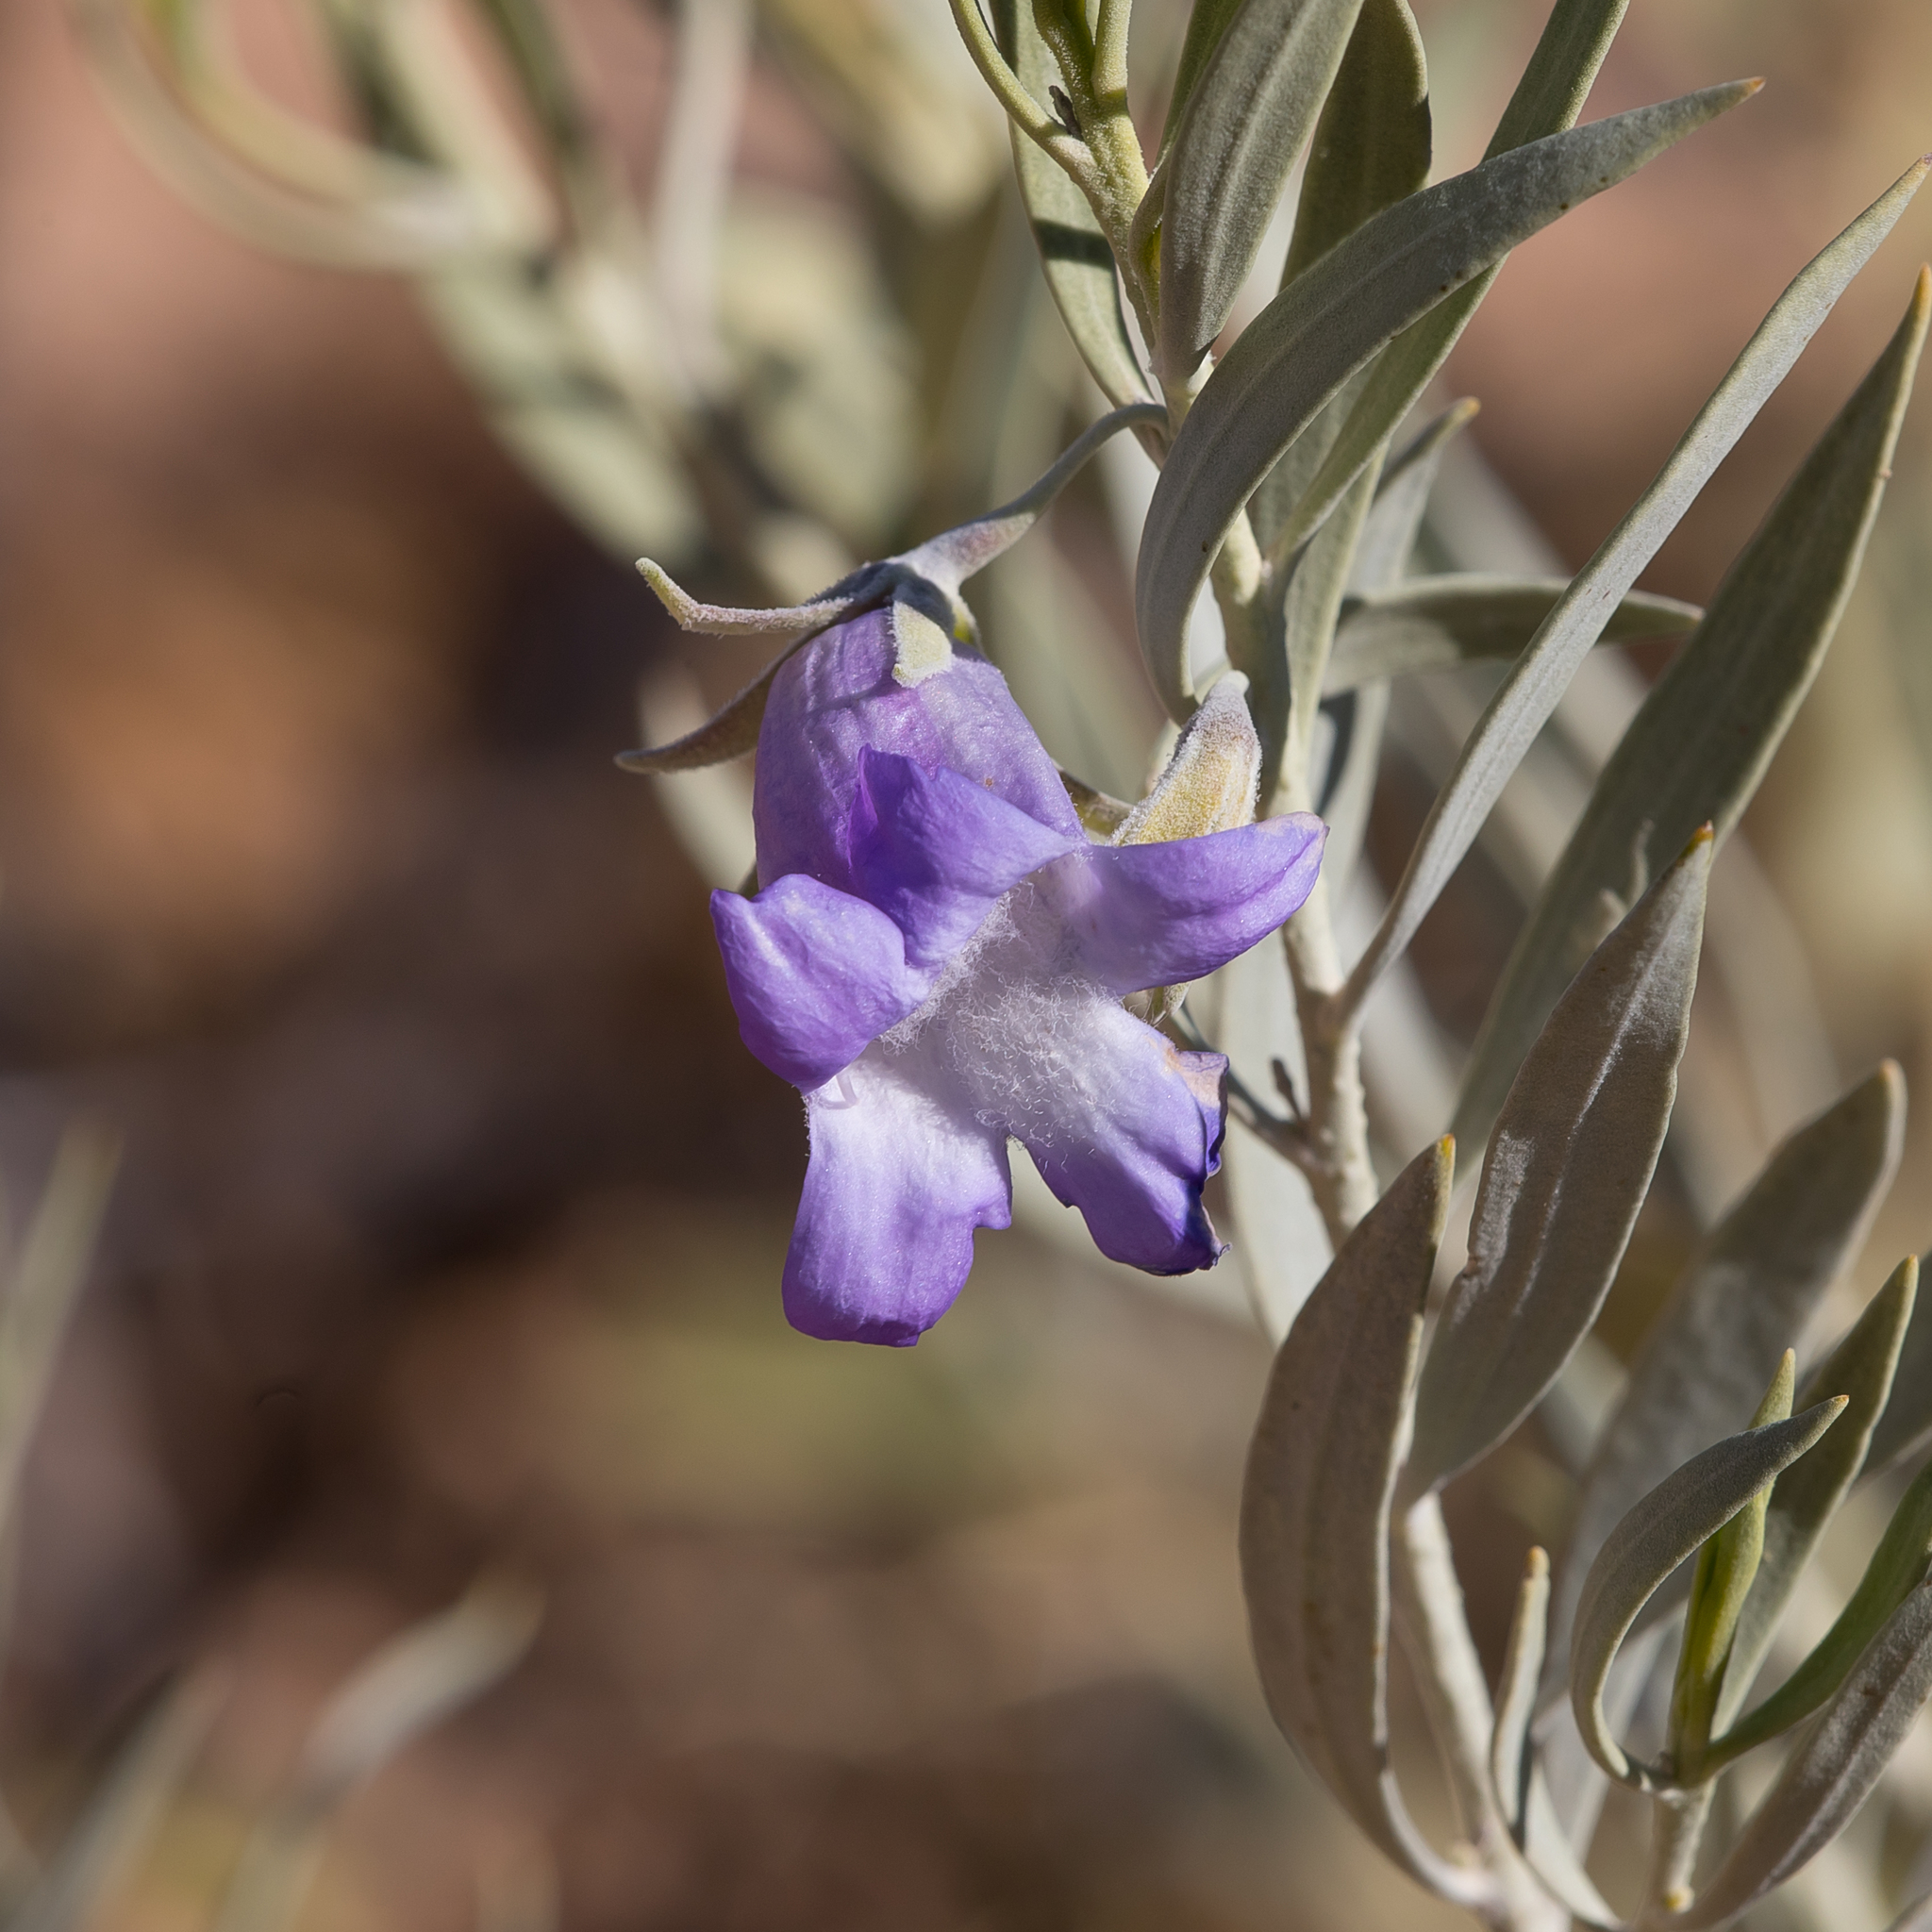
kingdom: Plantae
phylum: Tracheophyta
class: Magnoliopsida
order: Lamiales
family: Scrophulariaceae
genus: Eremophila
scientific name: Eremophila bowmanii
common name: Silver turkeybush
